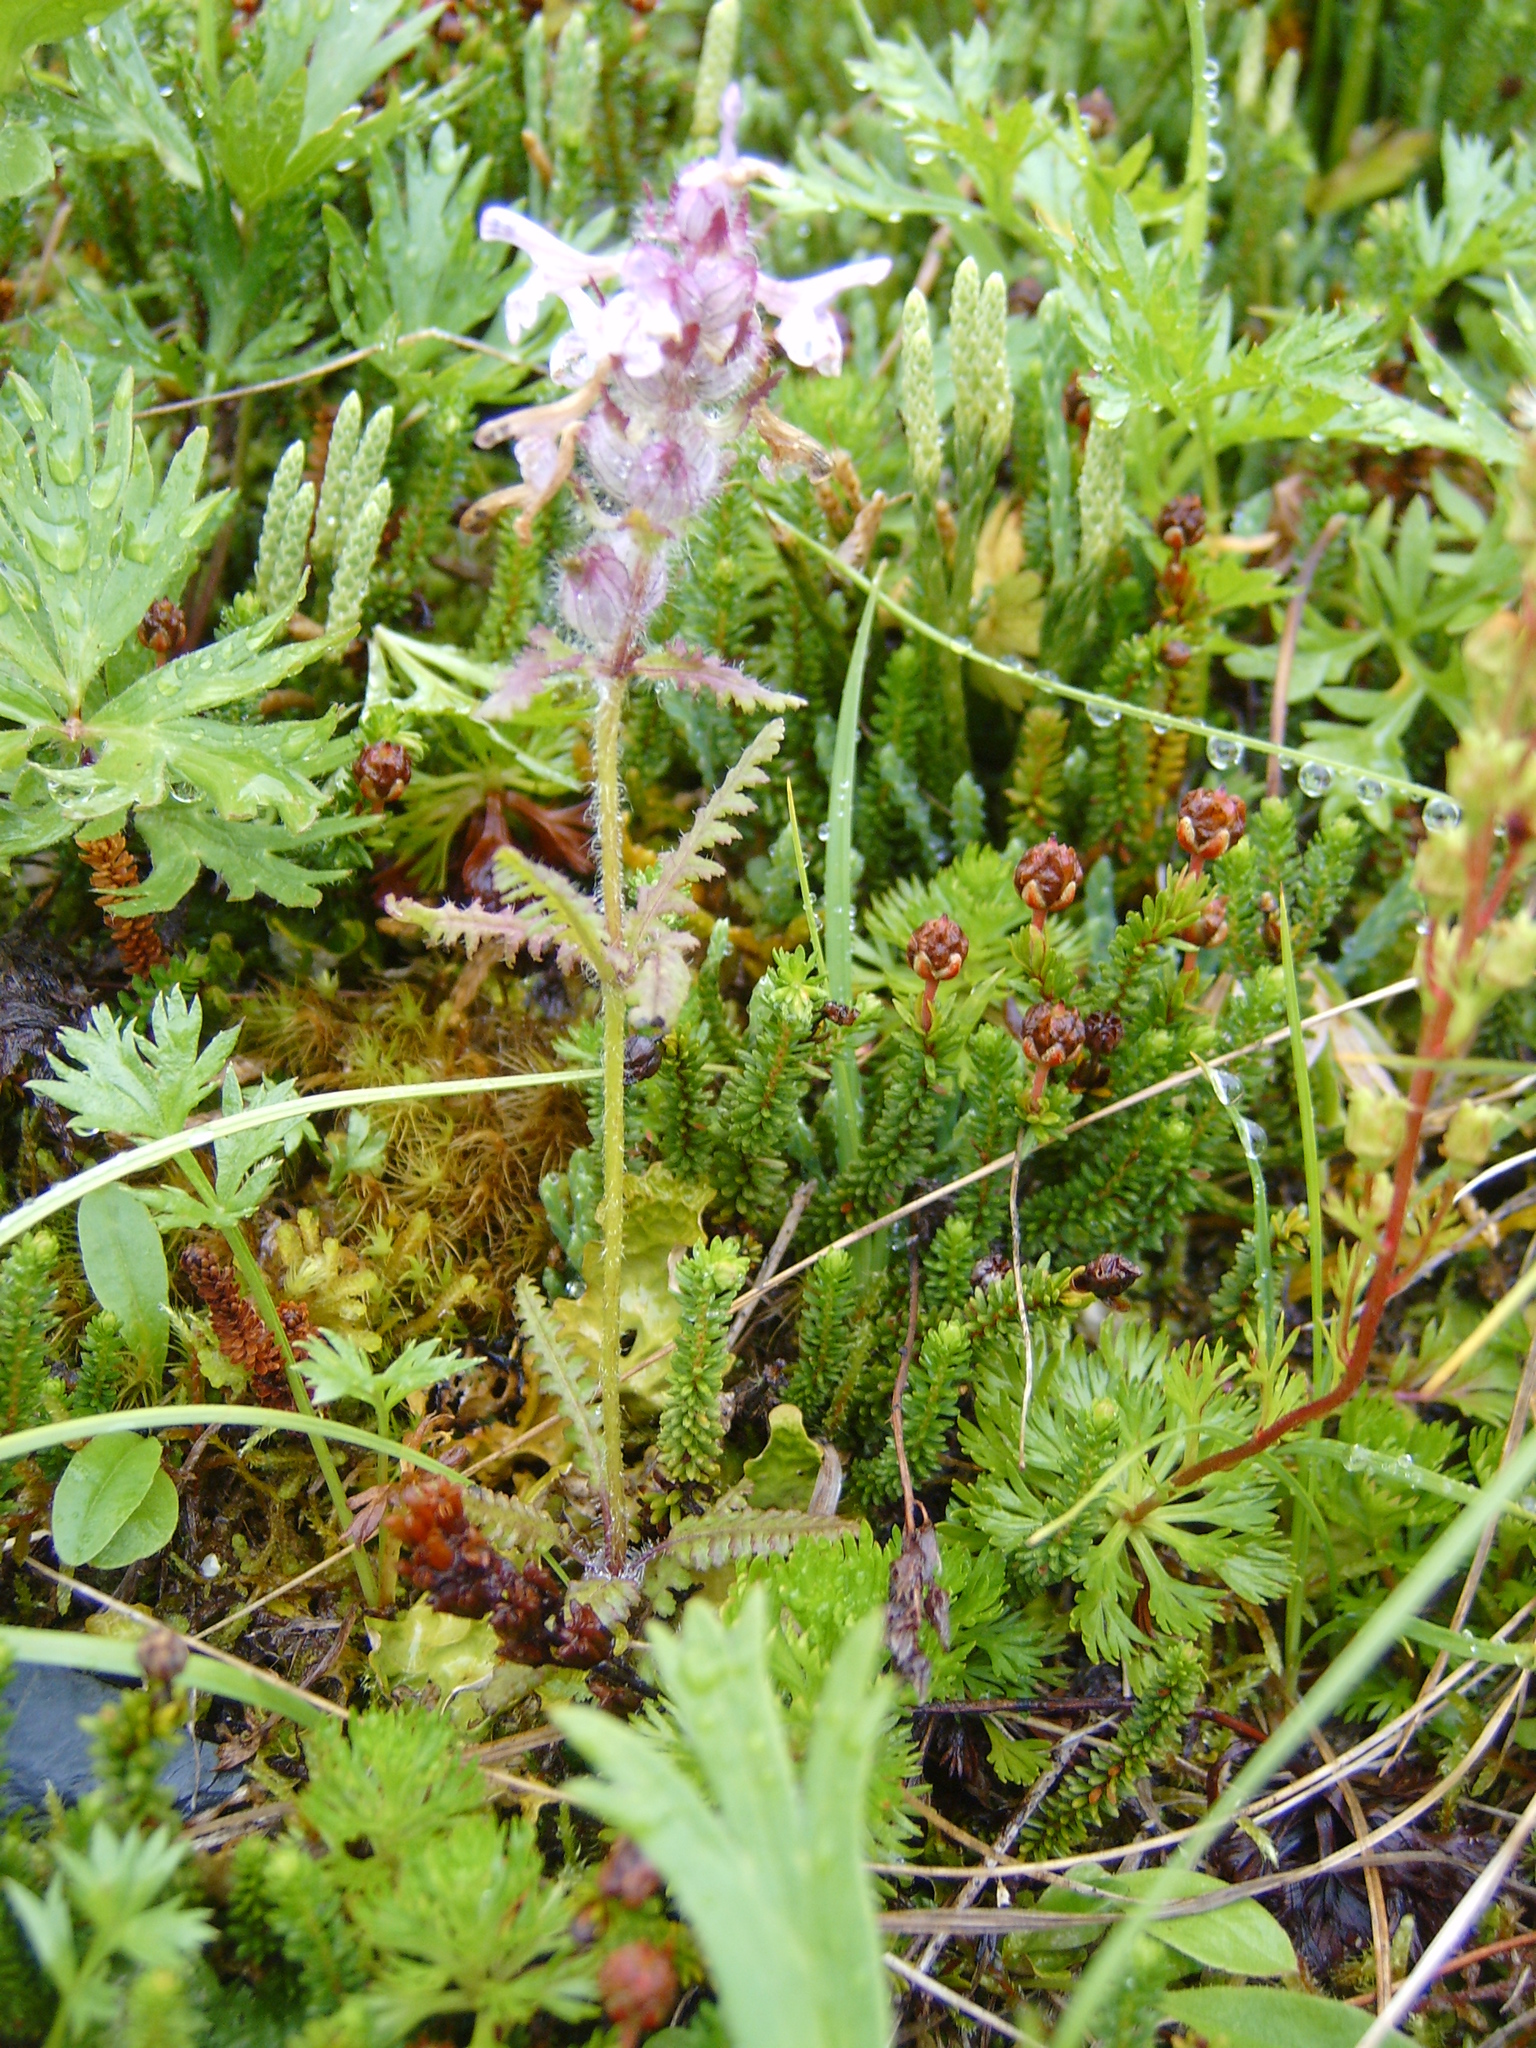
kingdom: Plantae
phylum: Tracheophyta
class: Magnoliopsida
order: Lamiales
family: Orobanchaceae
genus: Pedicularis
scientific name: Pedicularis verticillata
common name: Whorled lousewort
